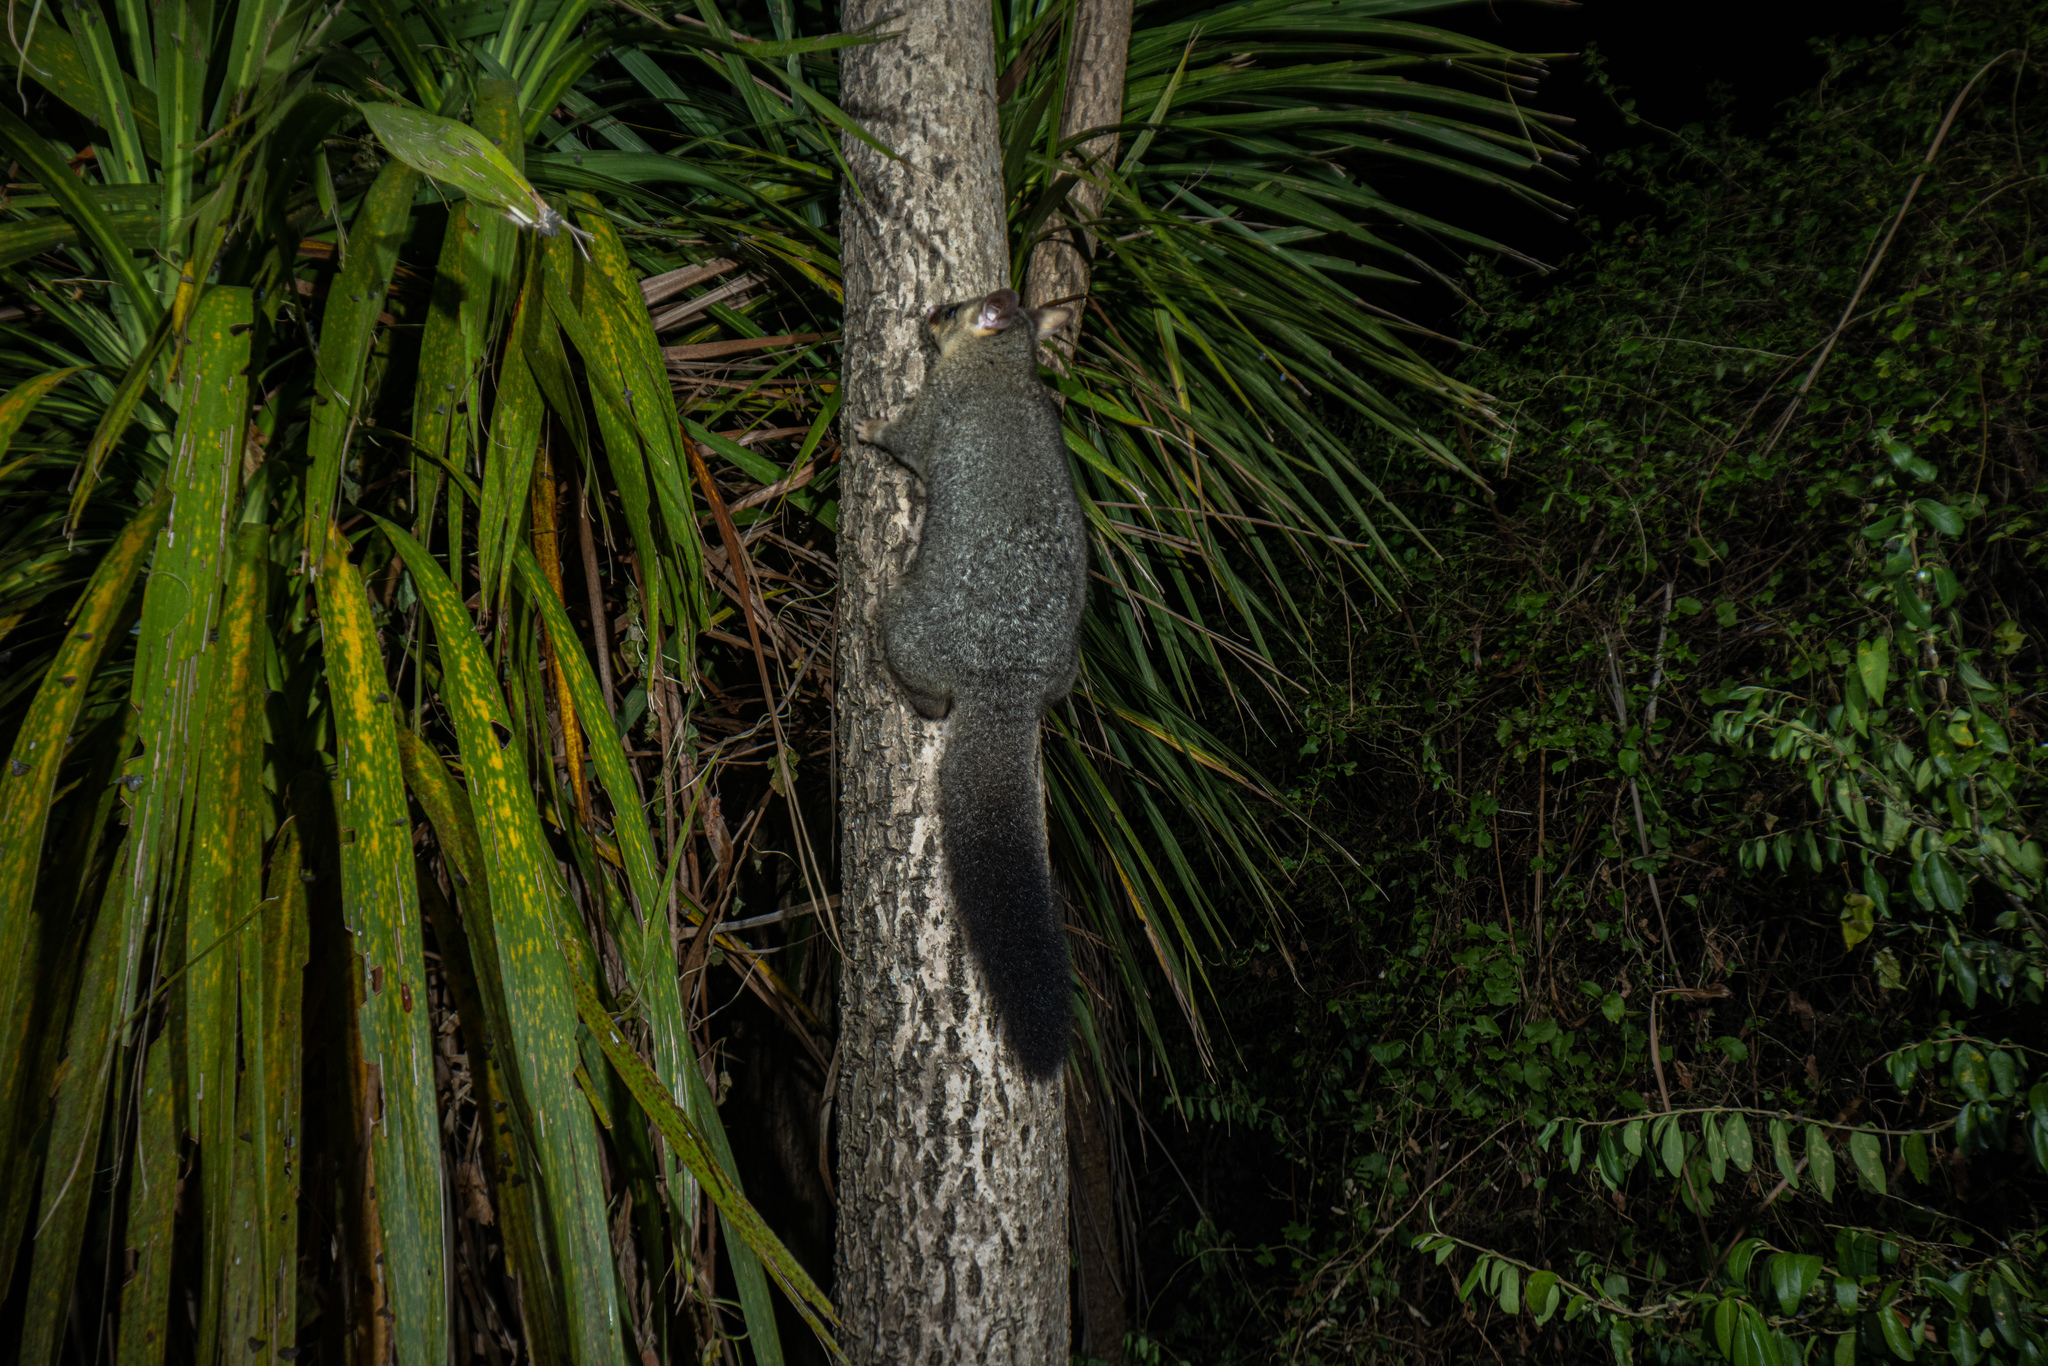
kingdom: Animalia
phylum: Chordata
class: Mammalia
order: Diprotodontia
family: Phalangeridae
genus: Trichosurus
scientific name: Trichosurus vulpecula
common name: Common brushtail
